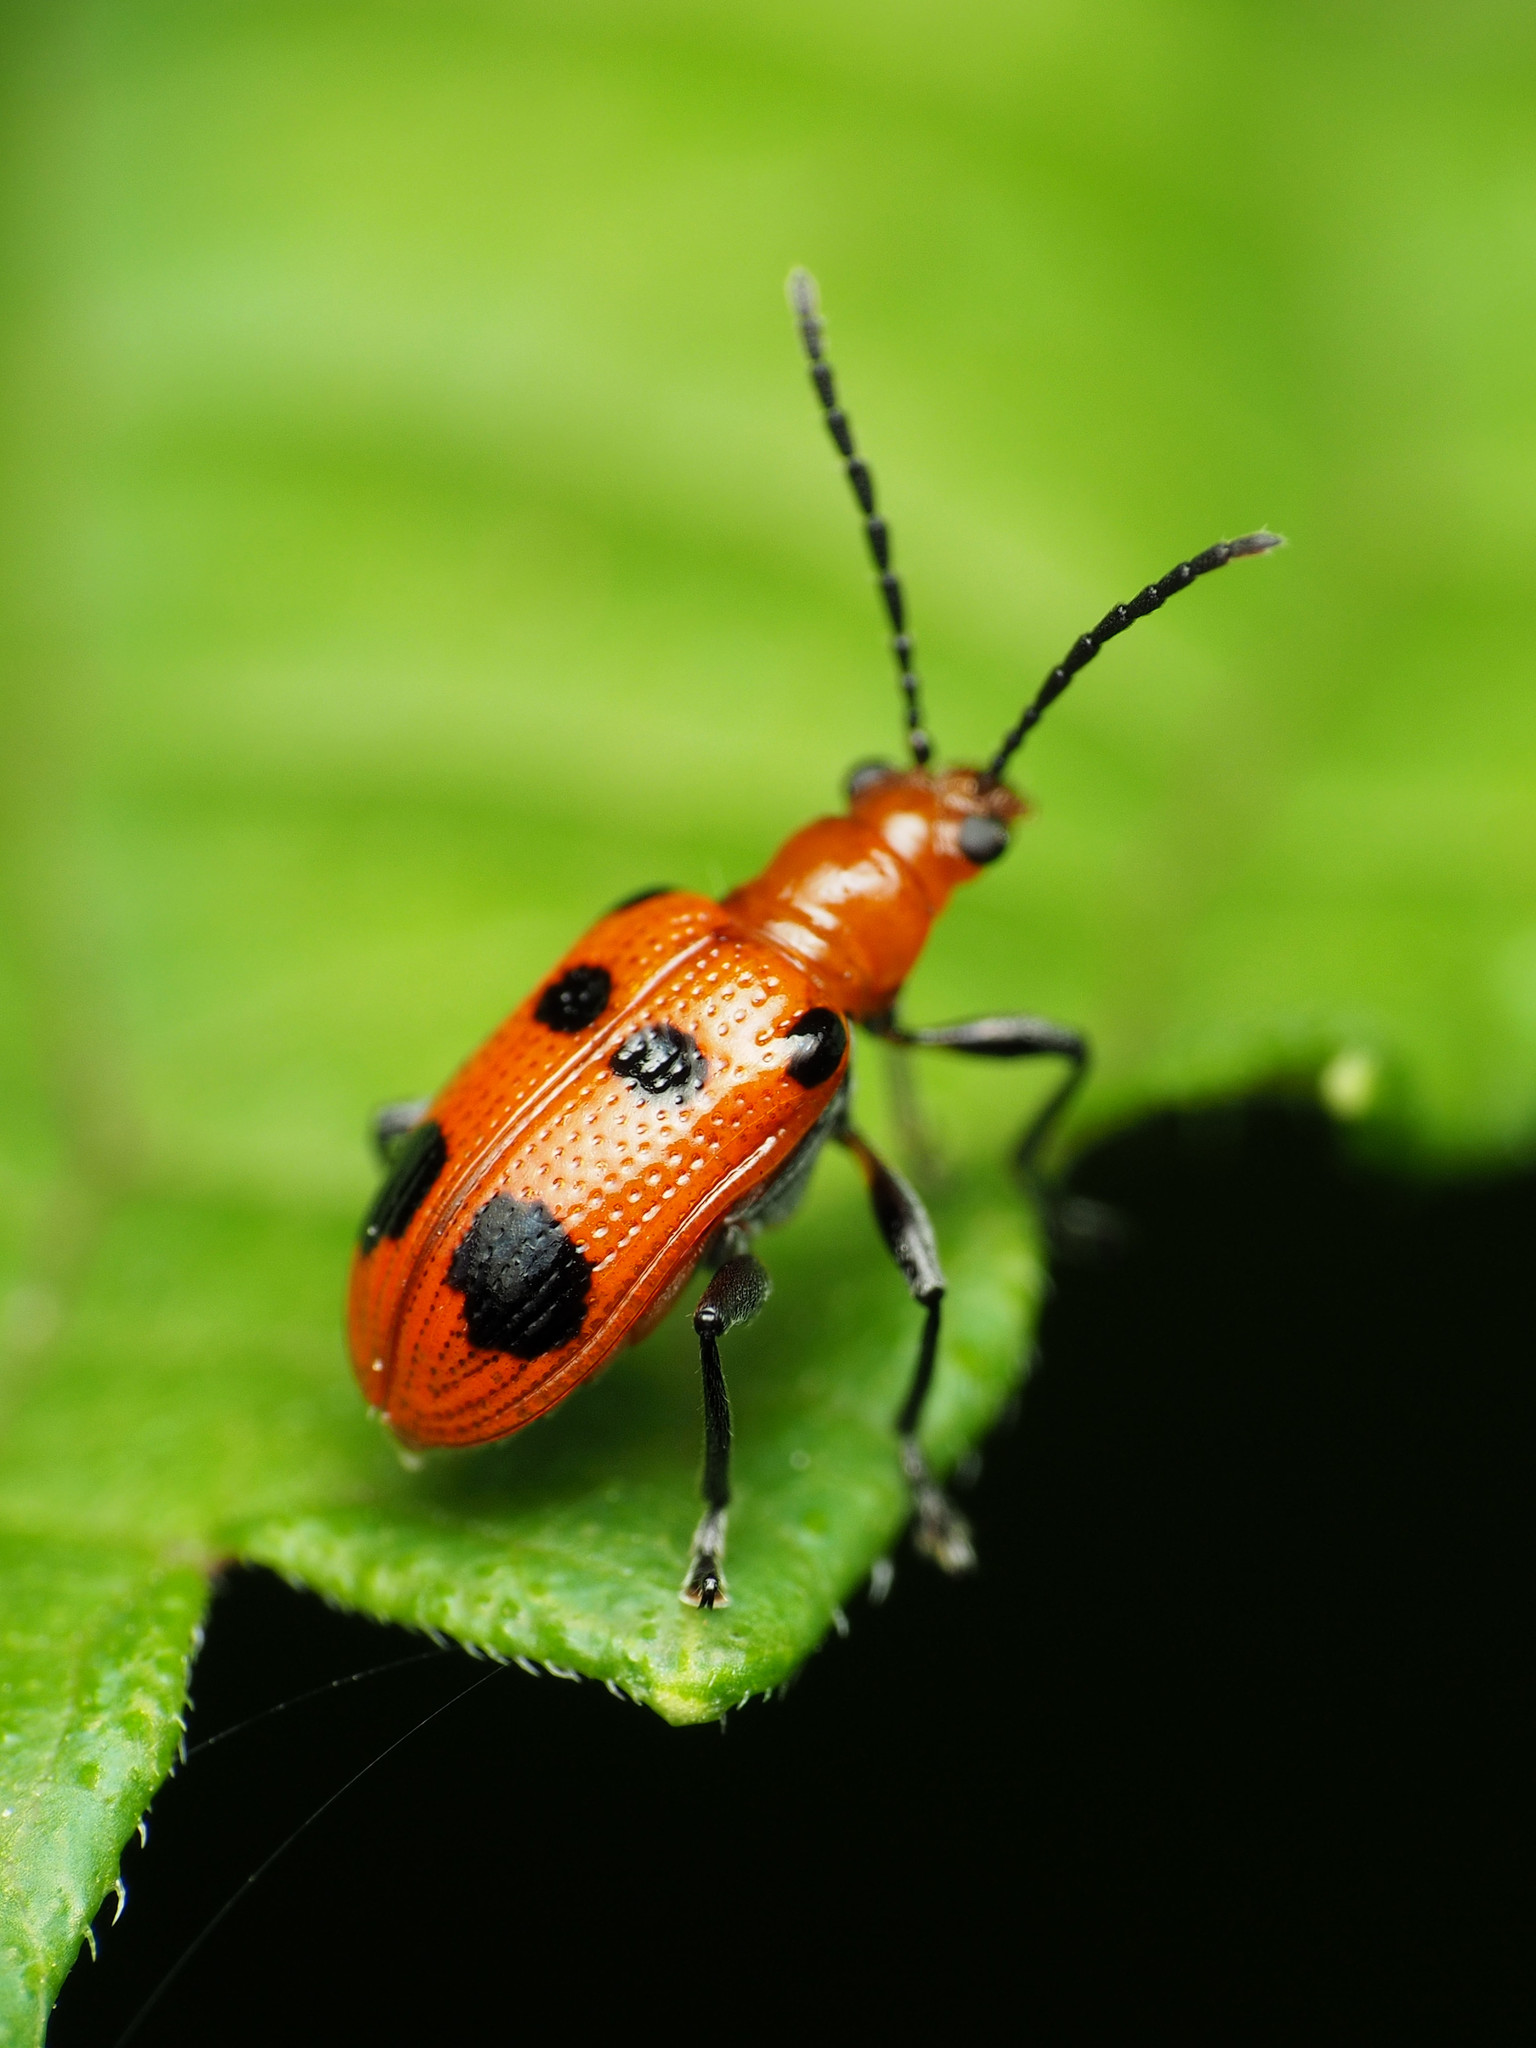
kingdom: Animalia
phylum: Arthropoda
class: Insecta
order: Coleoptera
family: Chrysomelidae
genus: Neolema
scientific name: Neolema sexpunctata
